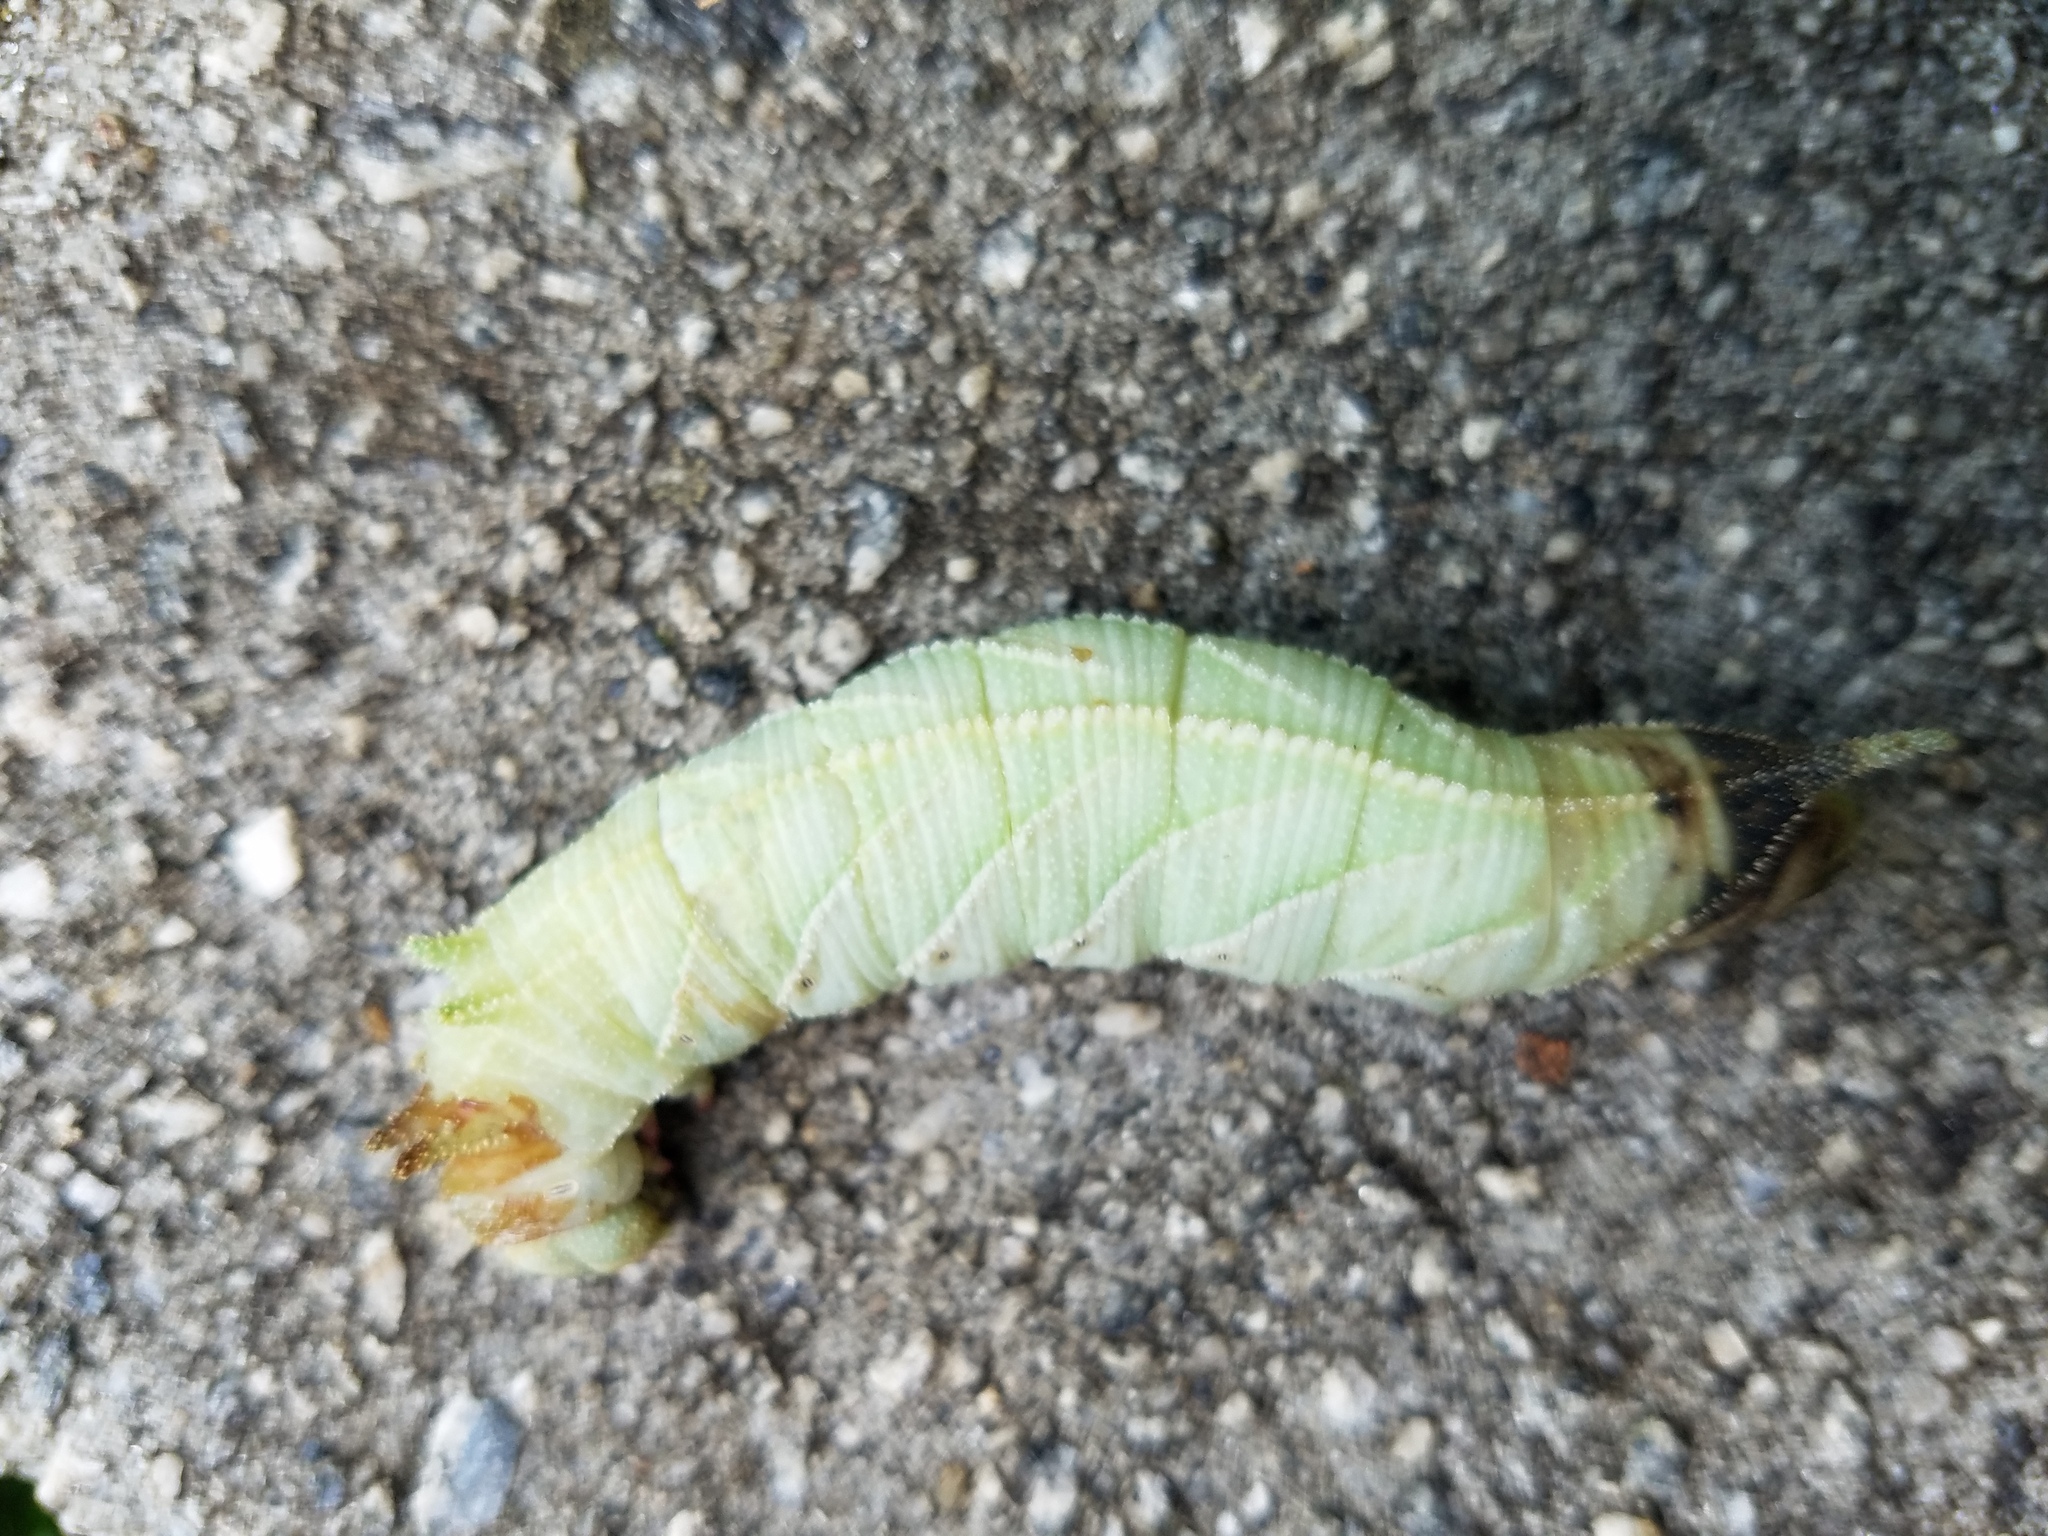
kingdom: Animalia
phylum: Arthropoda
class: Insecta
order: Lepidoptera
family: Sphingidae
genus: Ceratomia
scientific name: Ceratomia amyntor
